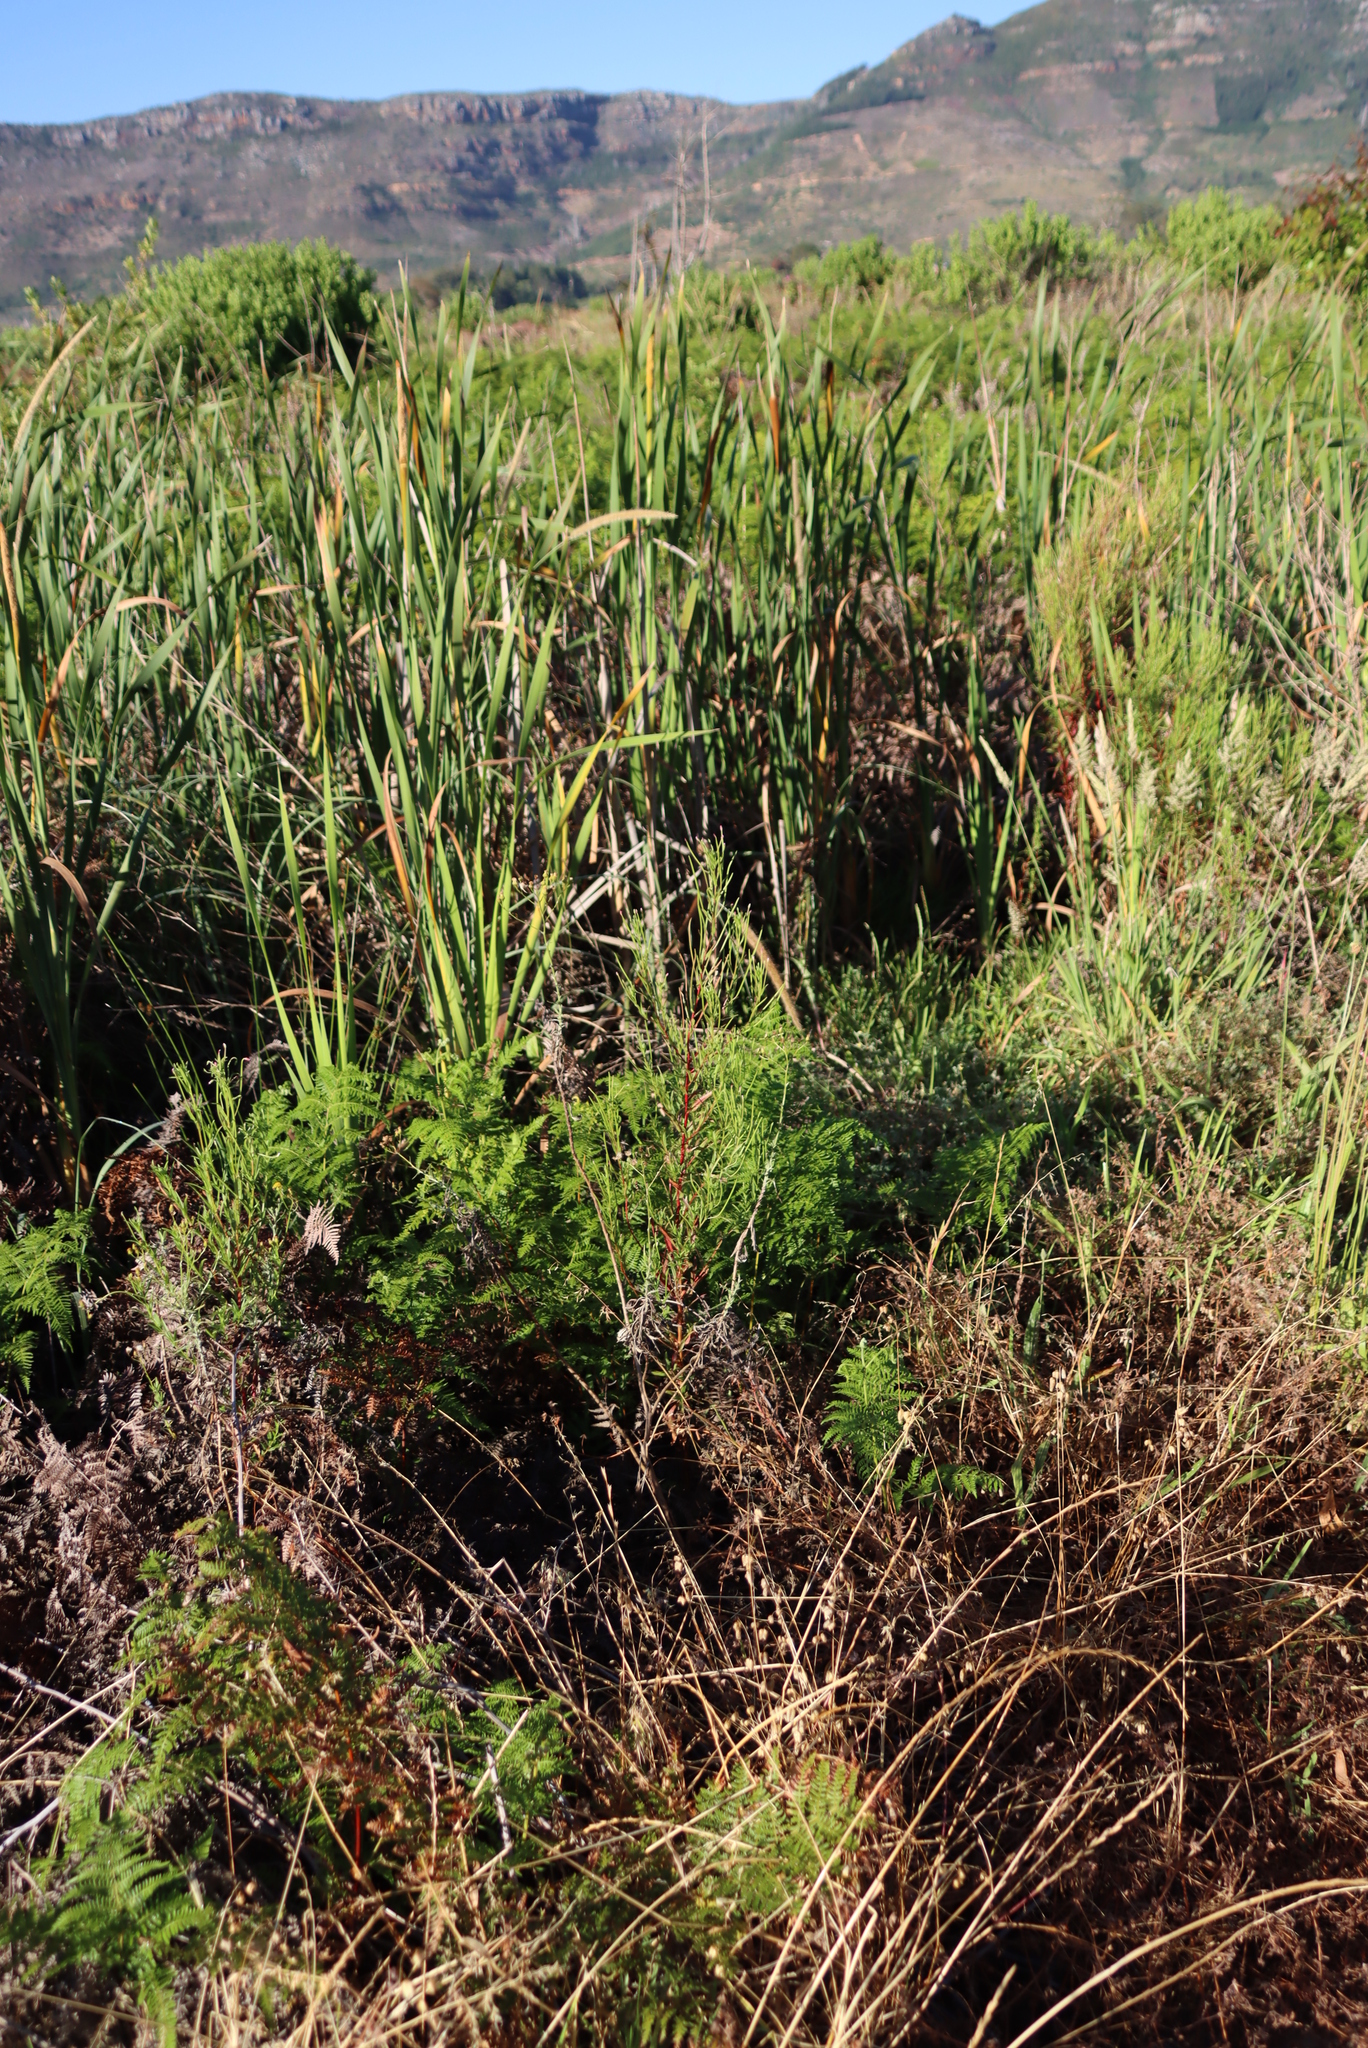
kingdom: Plantae
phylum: Tracheophyta
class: Liliopsida
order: Poales
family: Typhaceae
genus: Typha
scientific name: Typha capensis
